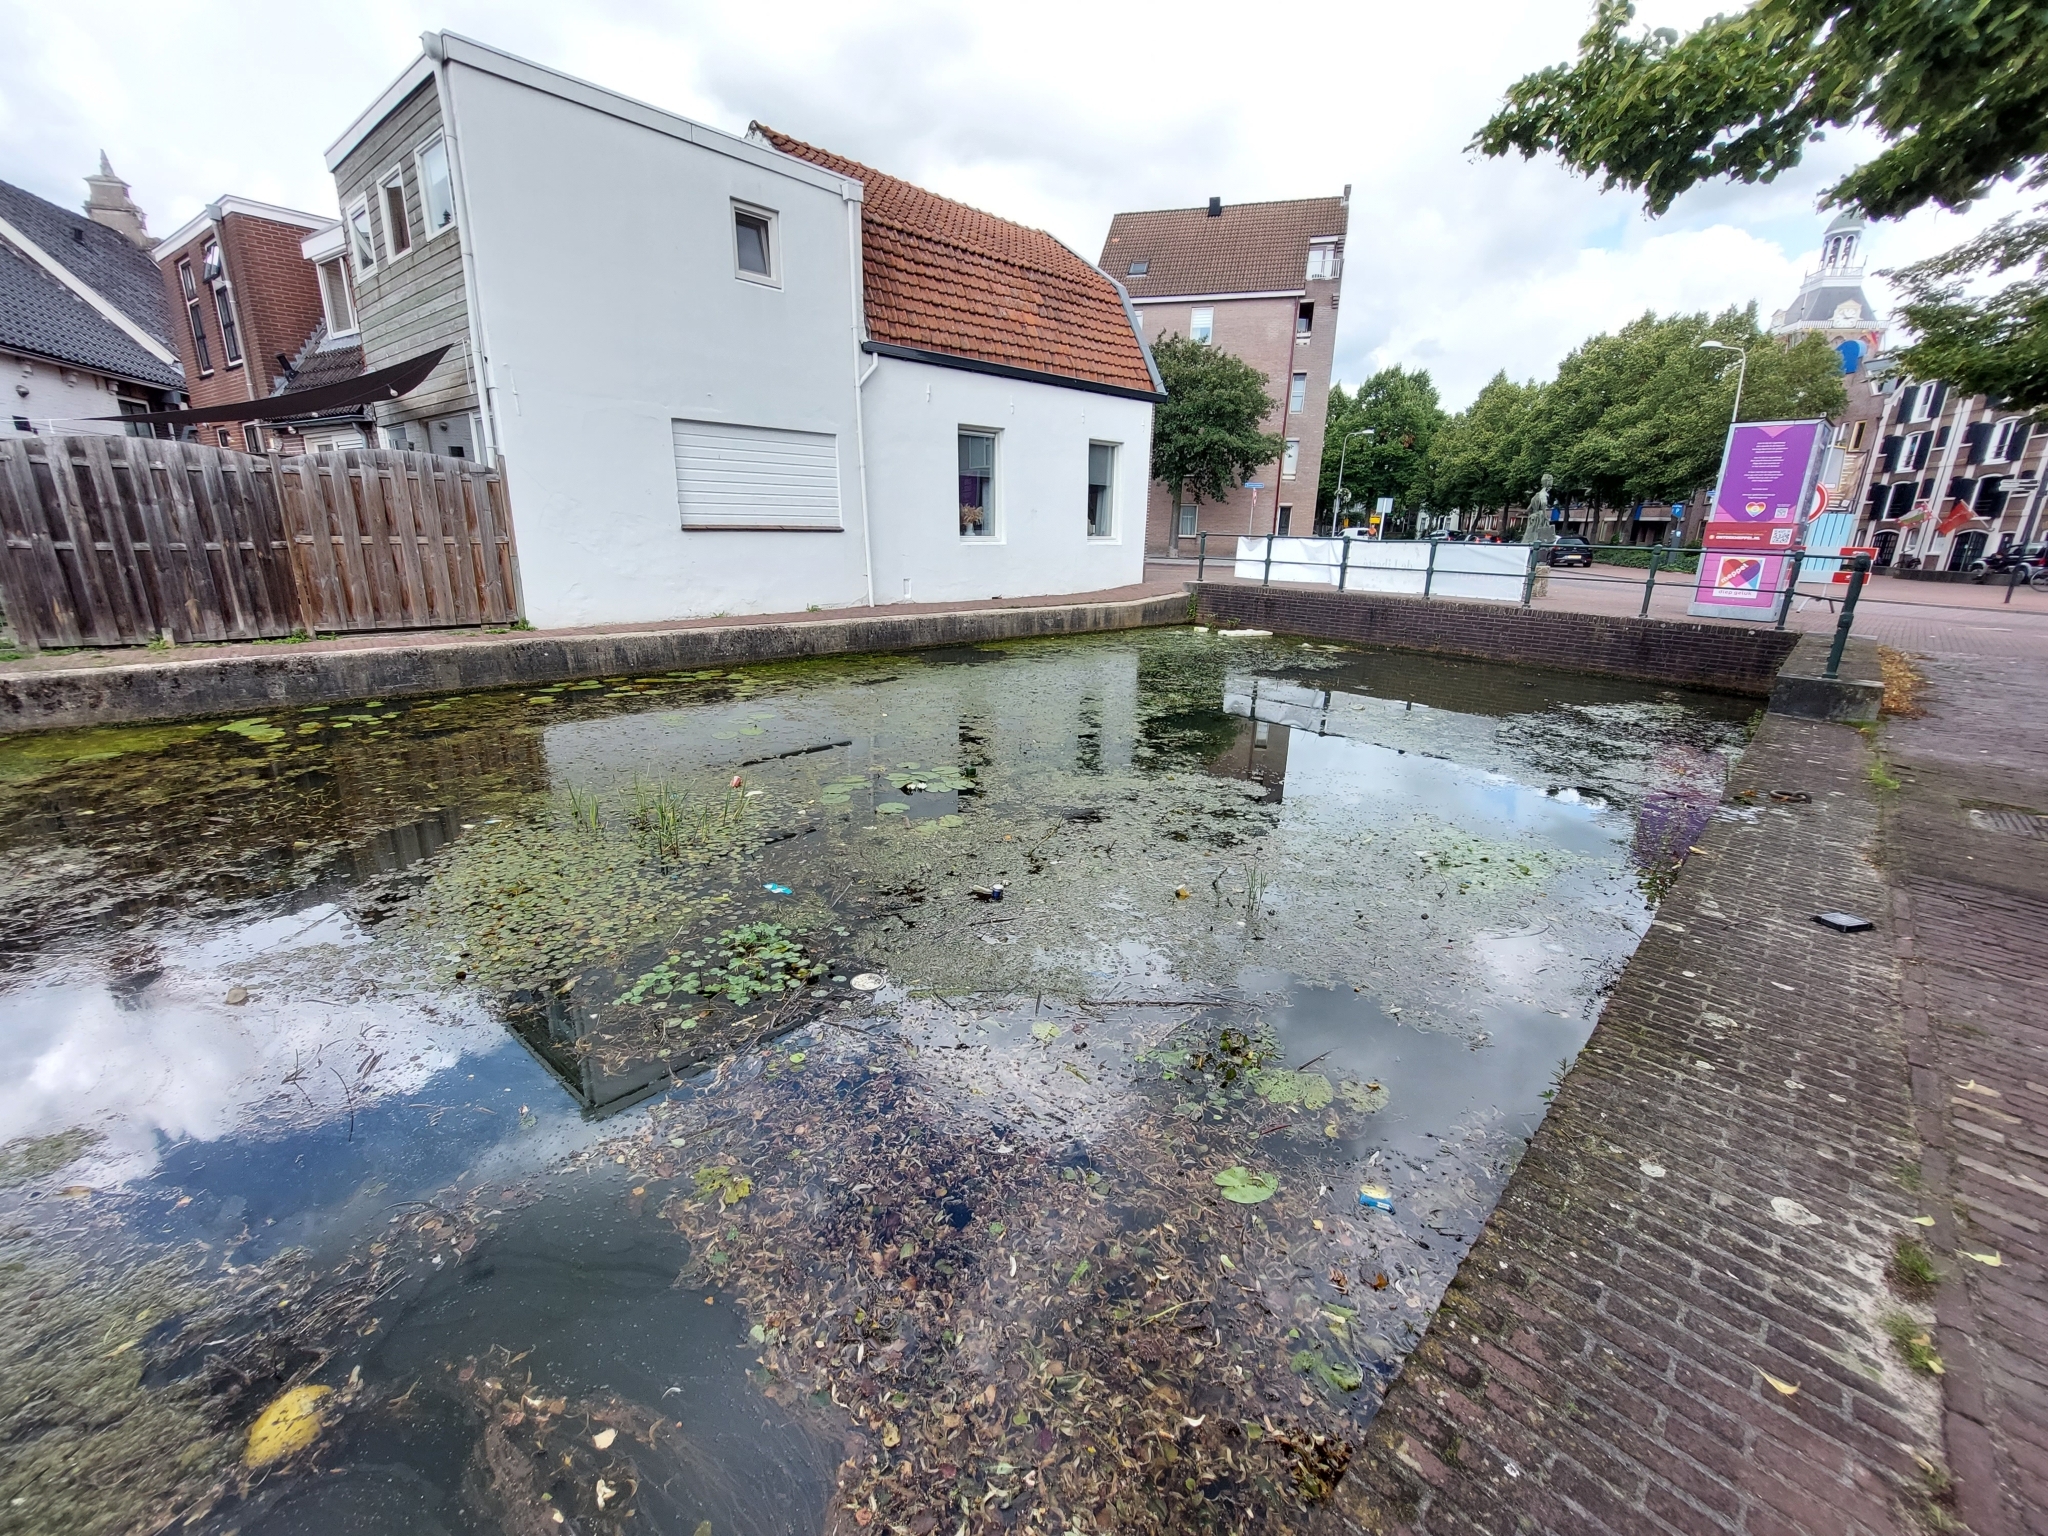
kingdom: Plantae
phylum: Tracheophyta
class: Magnoliopsida
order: Apiales
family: Araliaceae
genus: Hydrocotyle
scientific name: Hydrocotyle ranunculoides
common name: Floating pennywort
